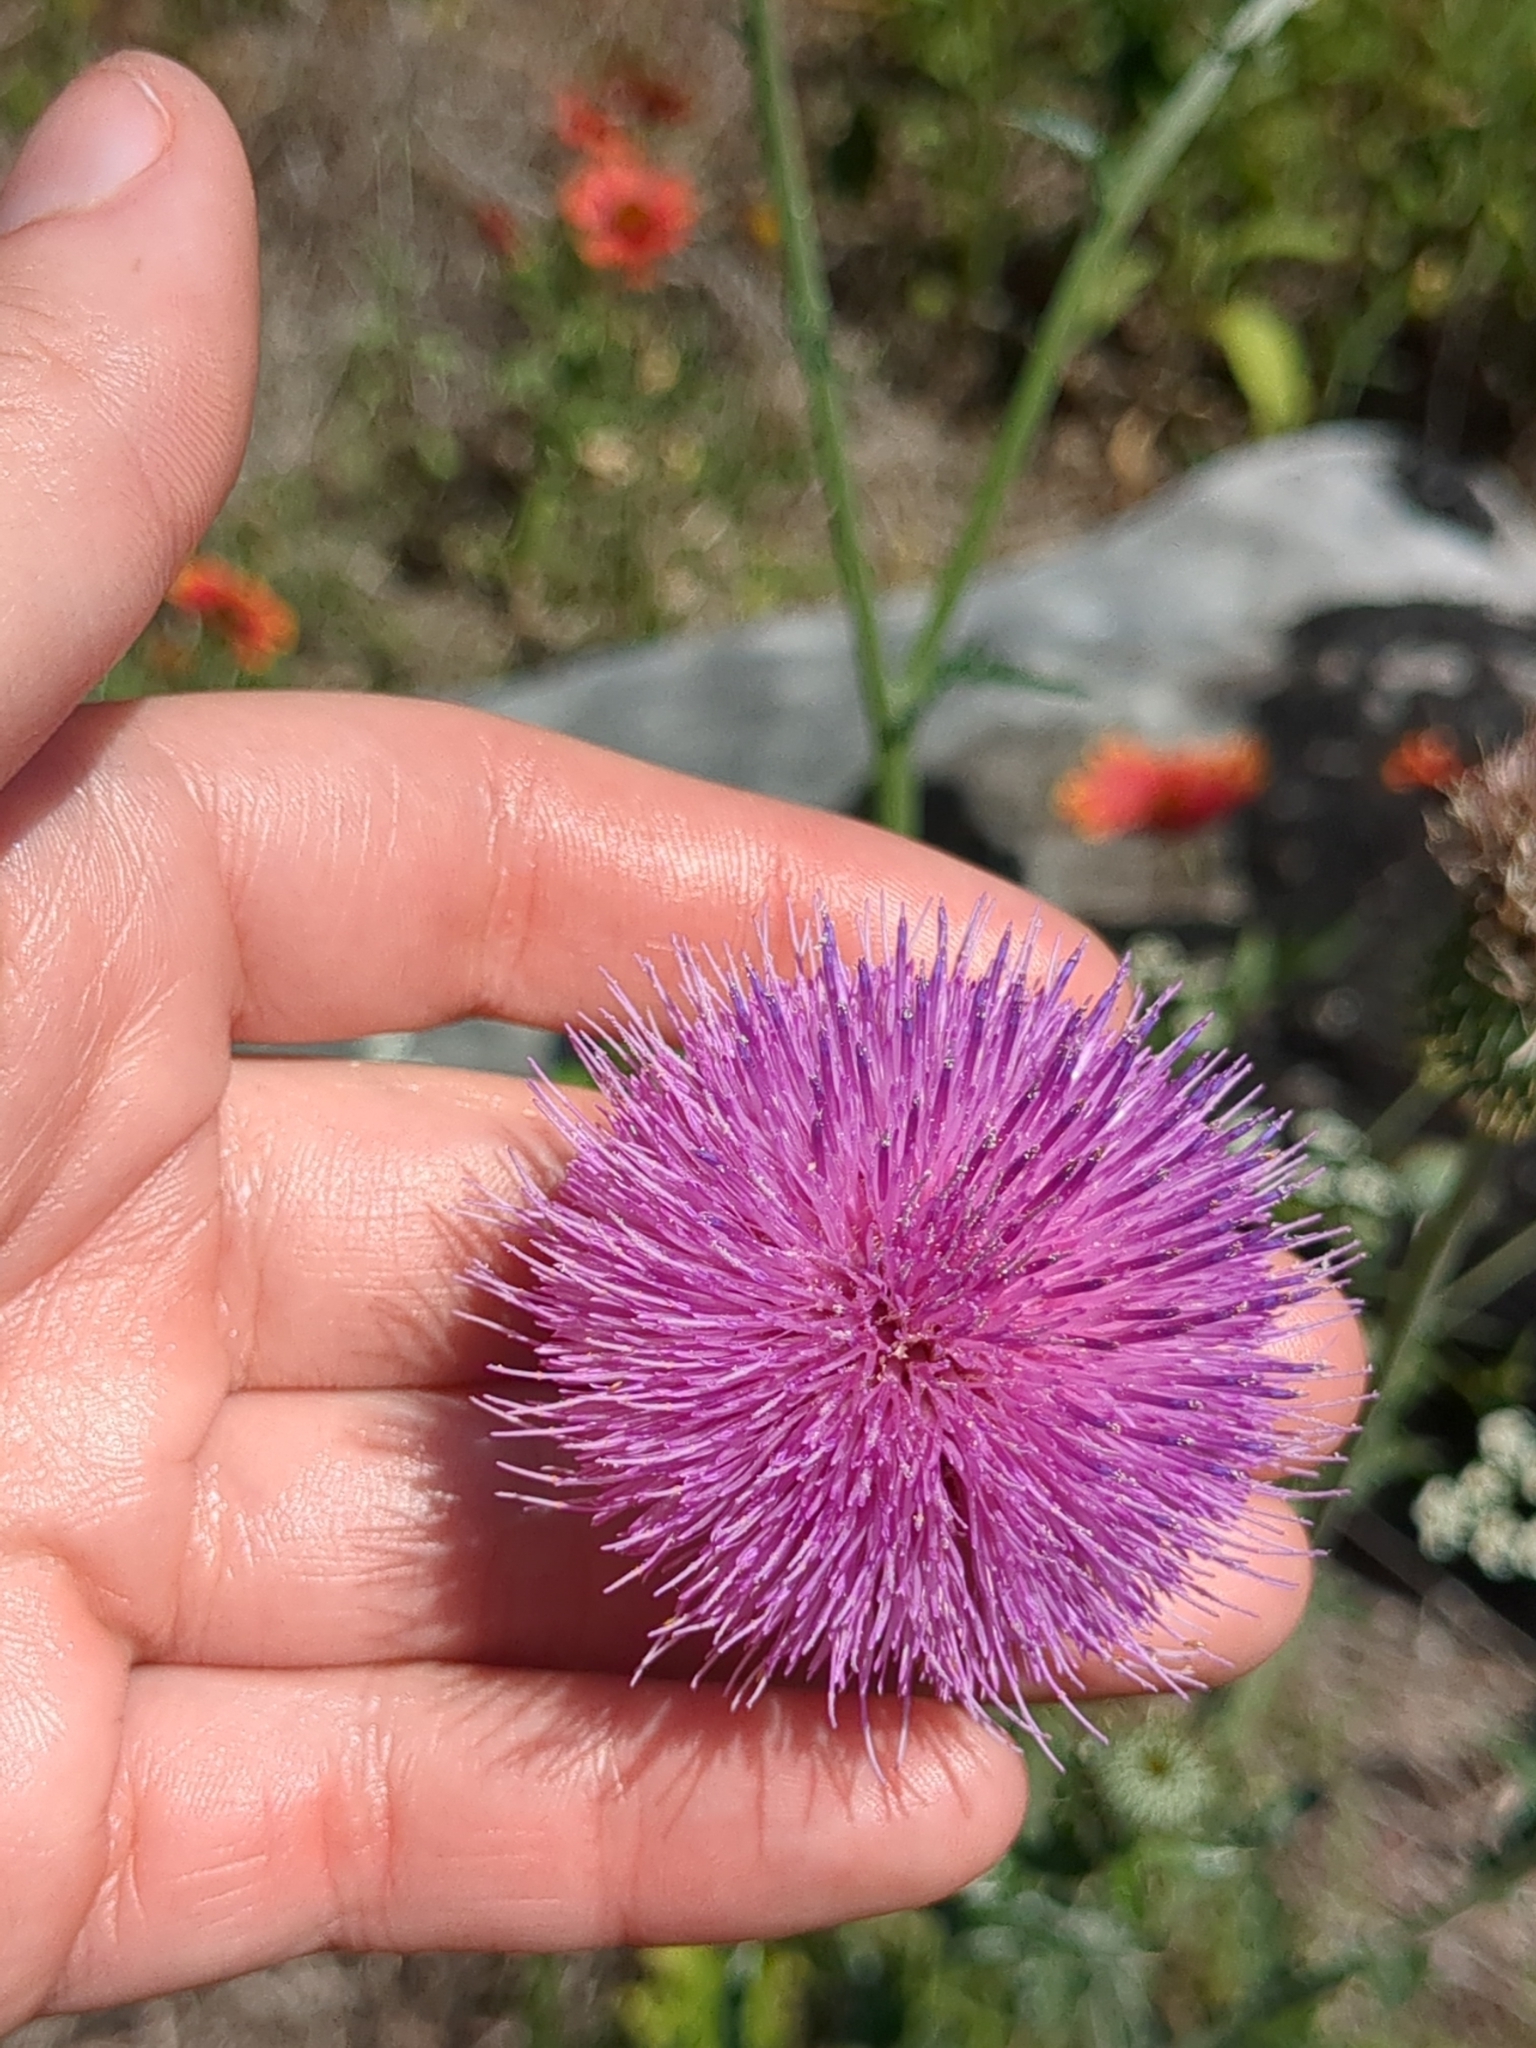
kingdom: Plantae
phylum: Tracheophyta
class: Magnoliopsida
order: Asterales
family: Asteraceae
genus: Cirsium
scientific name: Cirsium texanum
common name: Texas purple thistle
